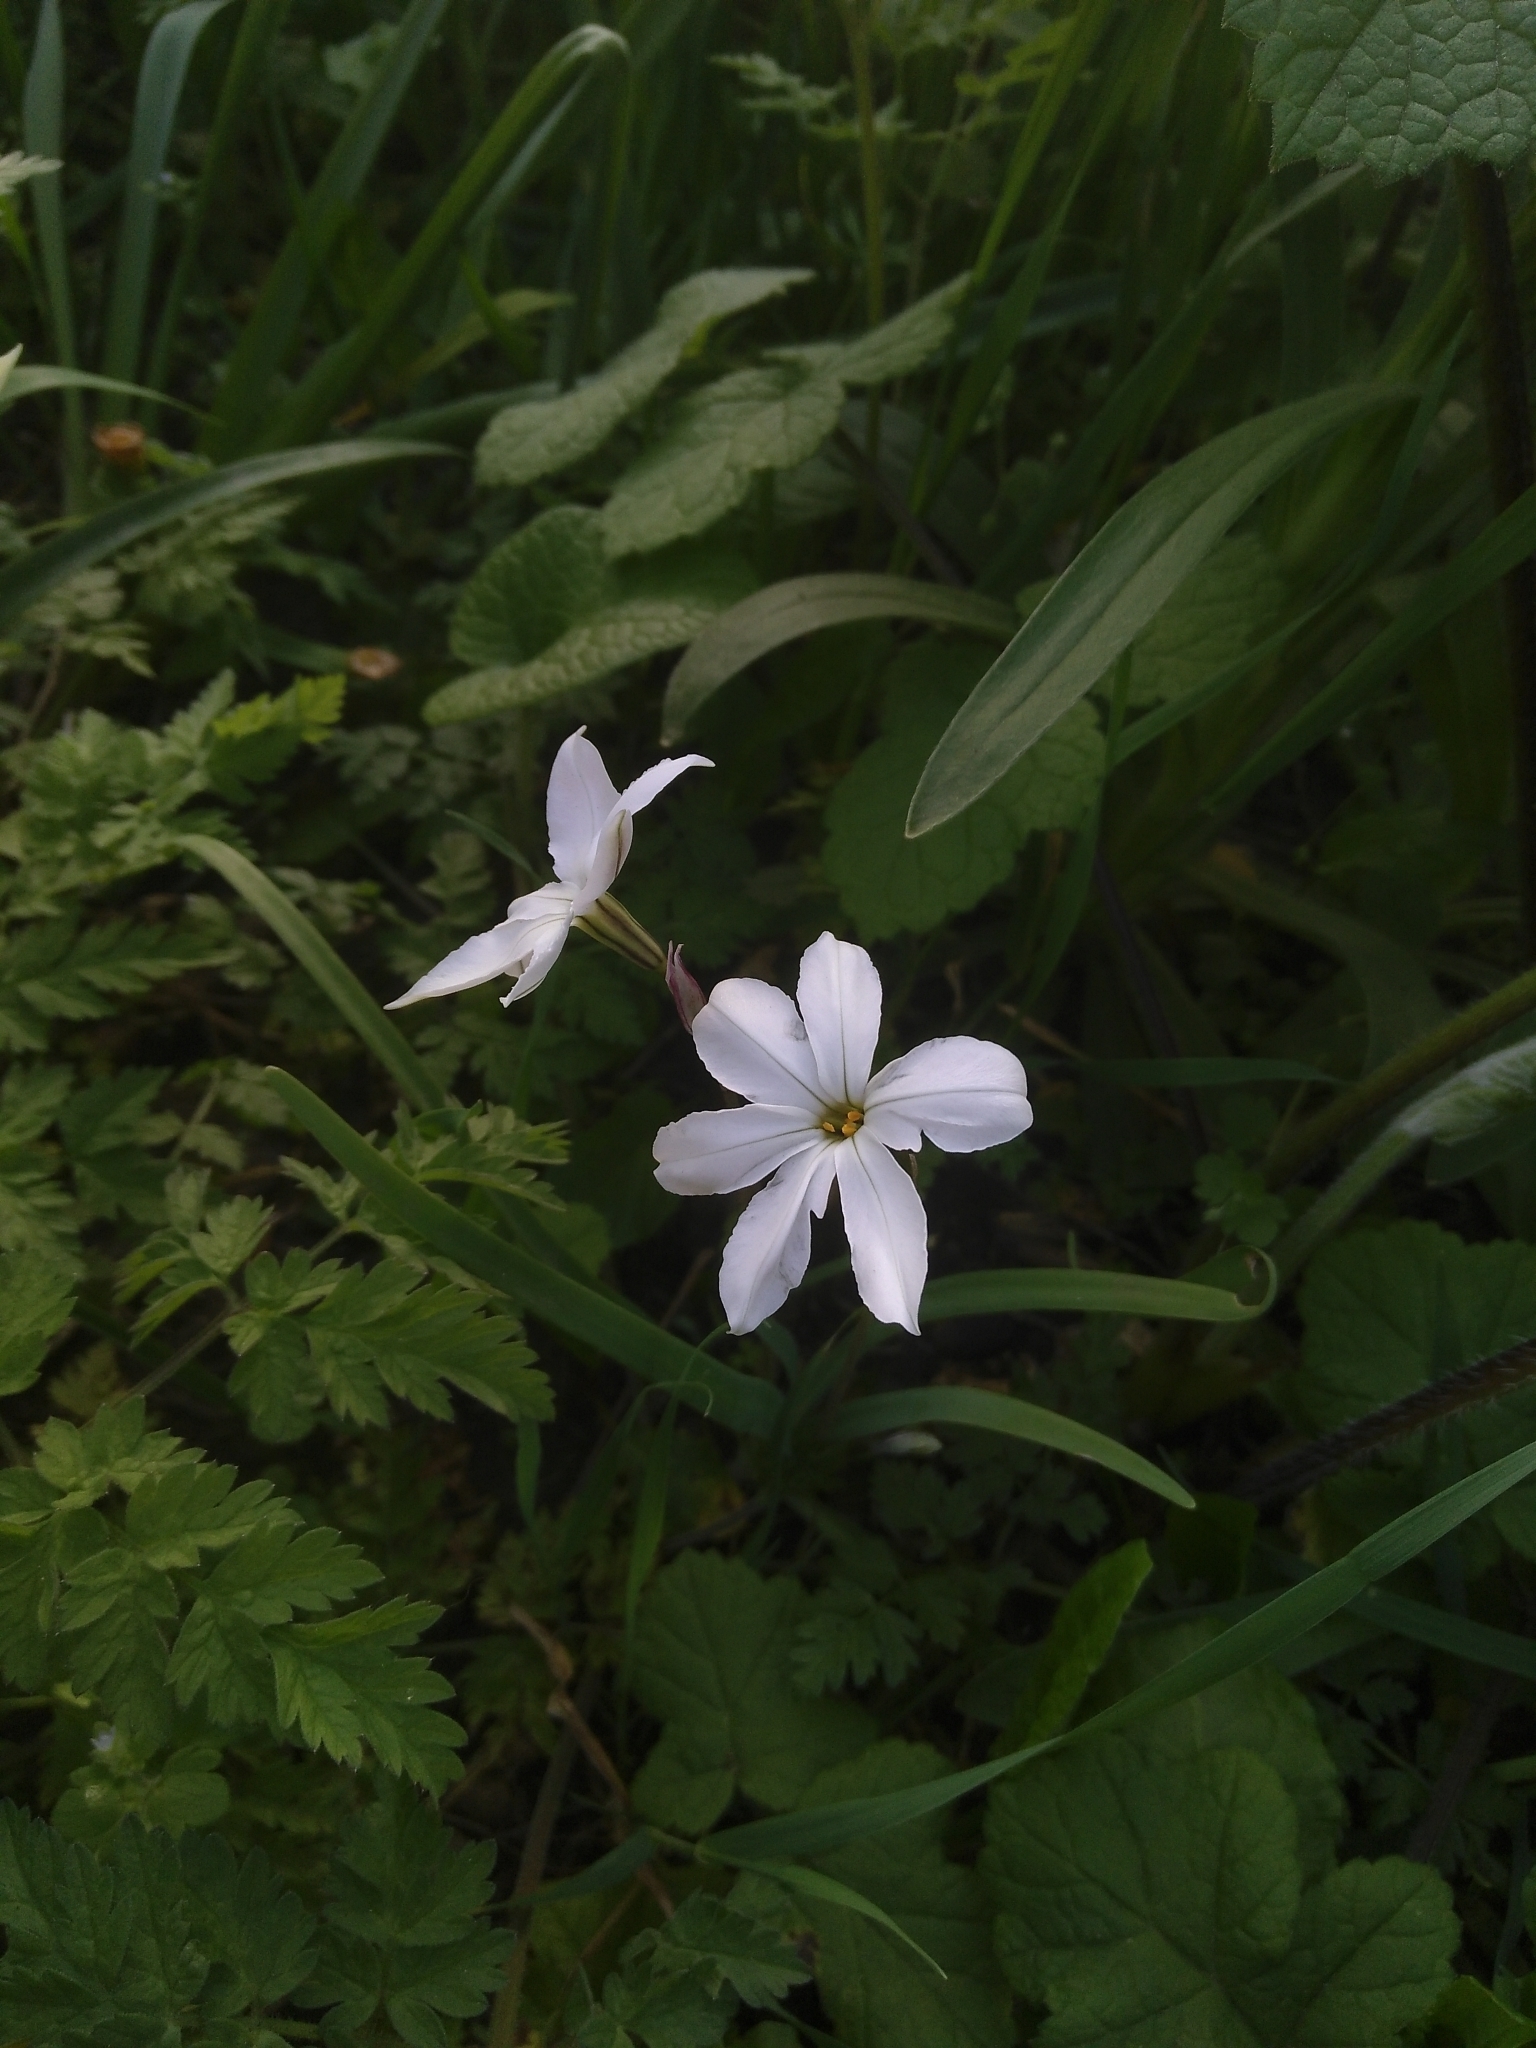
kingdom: Plantae
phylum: Tracheophyta
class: Liliopsida
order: Asparagales
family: Amaryllidaceae
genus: Ipheion
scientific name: Ipheion uniflorum
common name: Spring starflower
